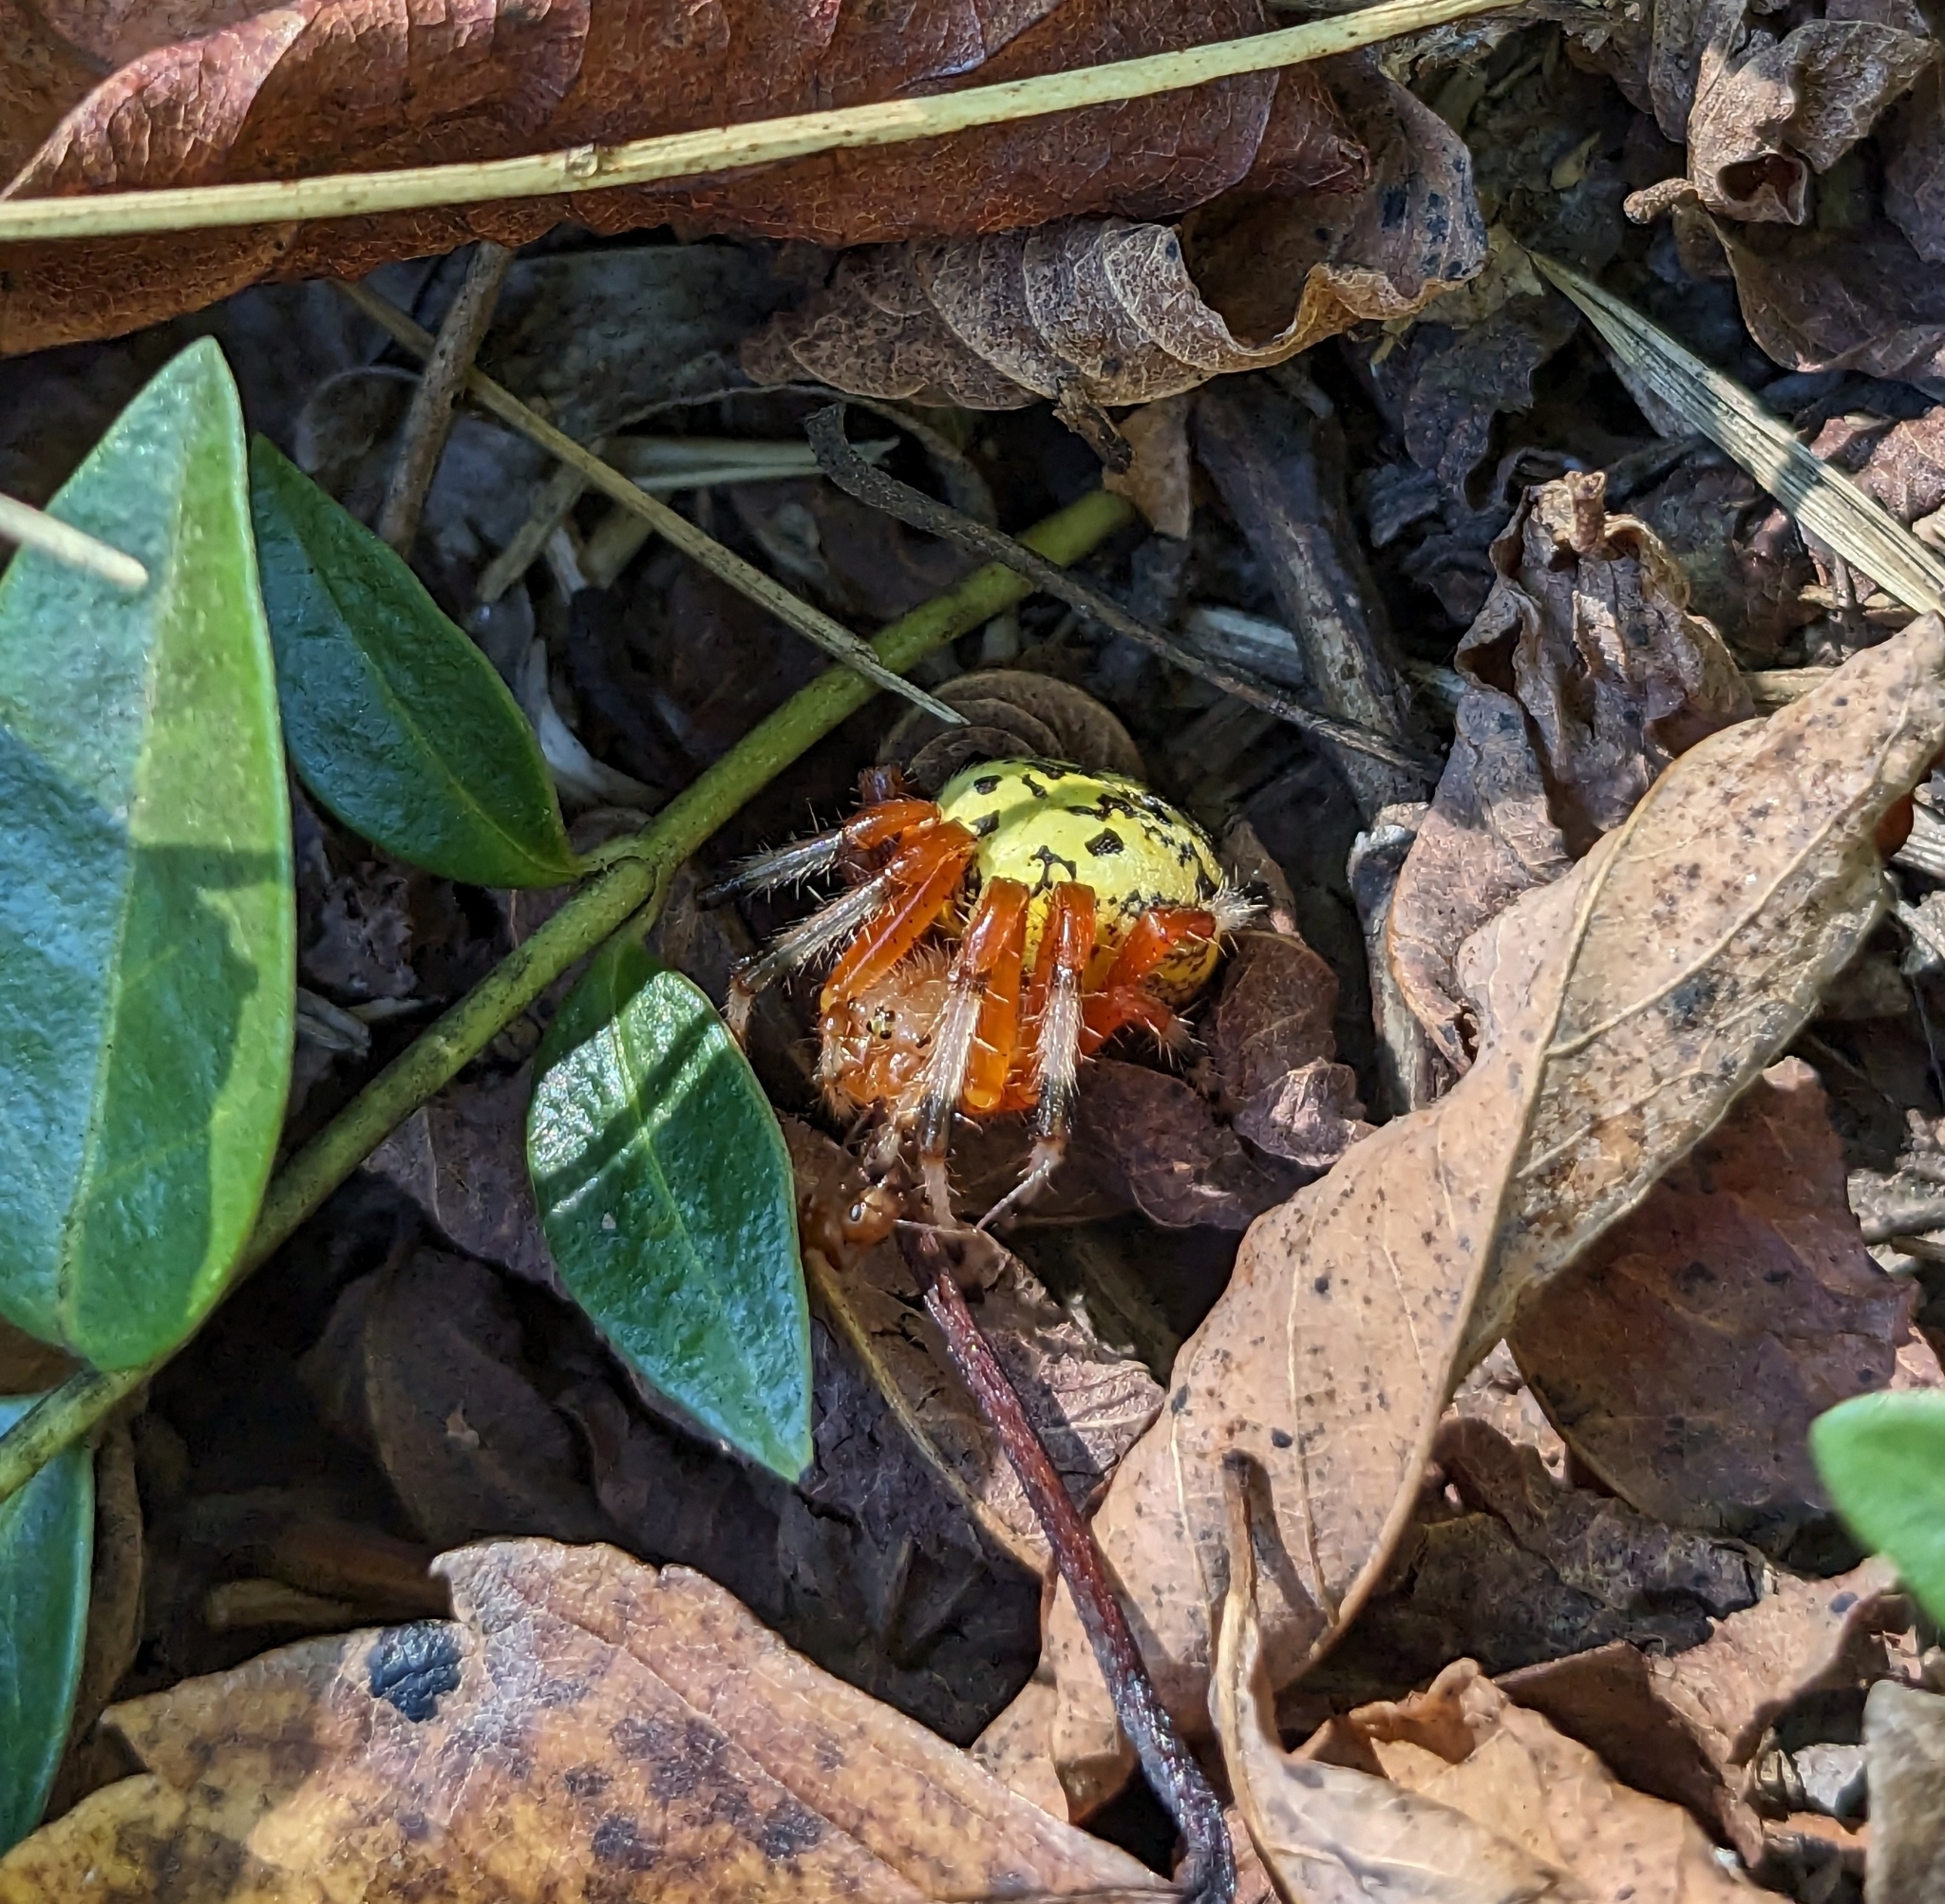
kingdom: Animalia
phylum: Arthropoda
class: Arachnida
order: Araneae
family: Araneidae
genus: Araneus
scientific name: Araneus marmoreus
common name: Marbled orbweaver
